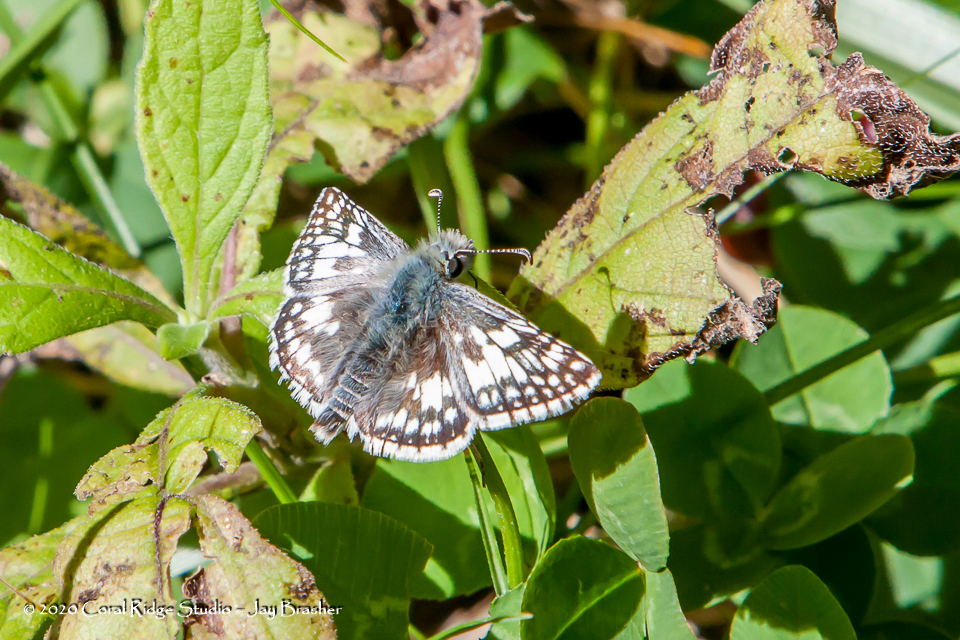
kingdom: Animalia
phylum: Arthropoda
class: Insecta
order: Lepidoptera
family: Hesperiidae
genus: Burnsius
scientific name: Burnsius communis
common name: Common checkered-skipper
